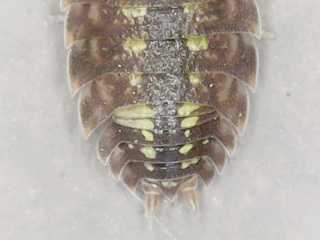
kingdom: Animalia
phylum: Arthropoda
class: Malacostraca
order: Isopoda
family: Porcellionidae
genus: Porcellio
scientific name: Porcellio spinicornis
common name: Painted woodlouse
